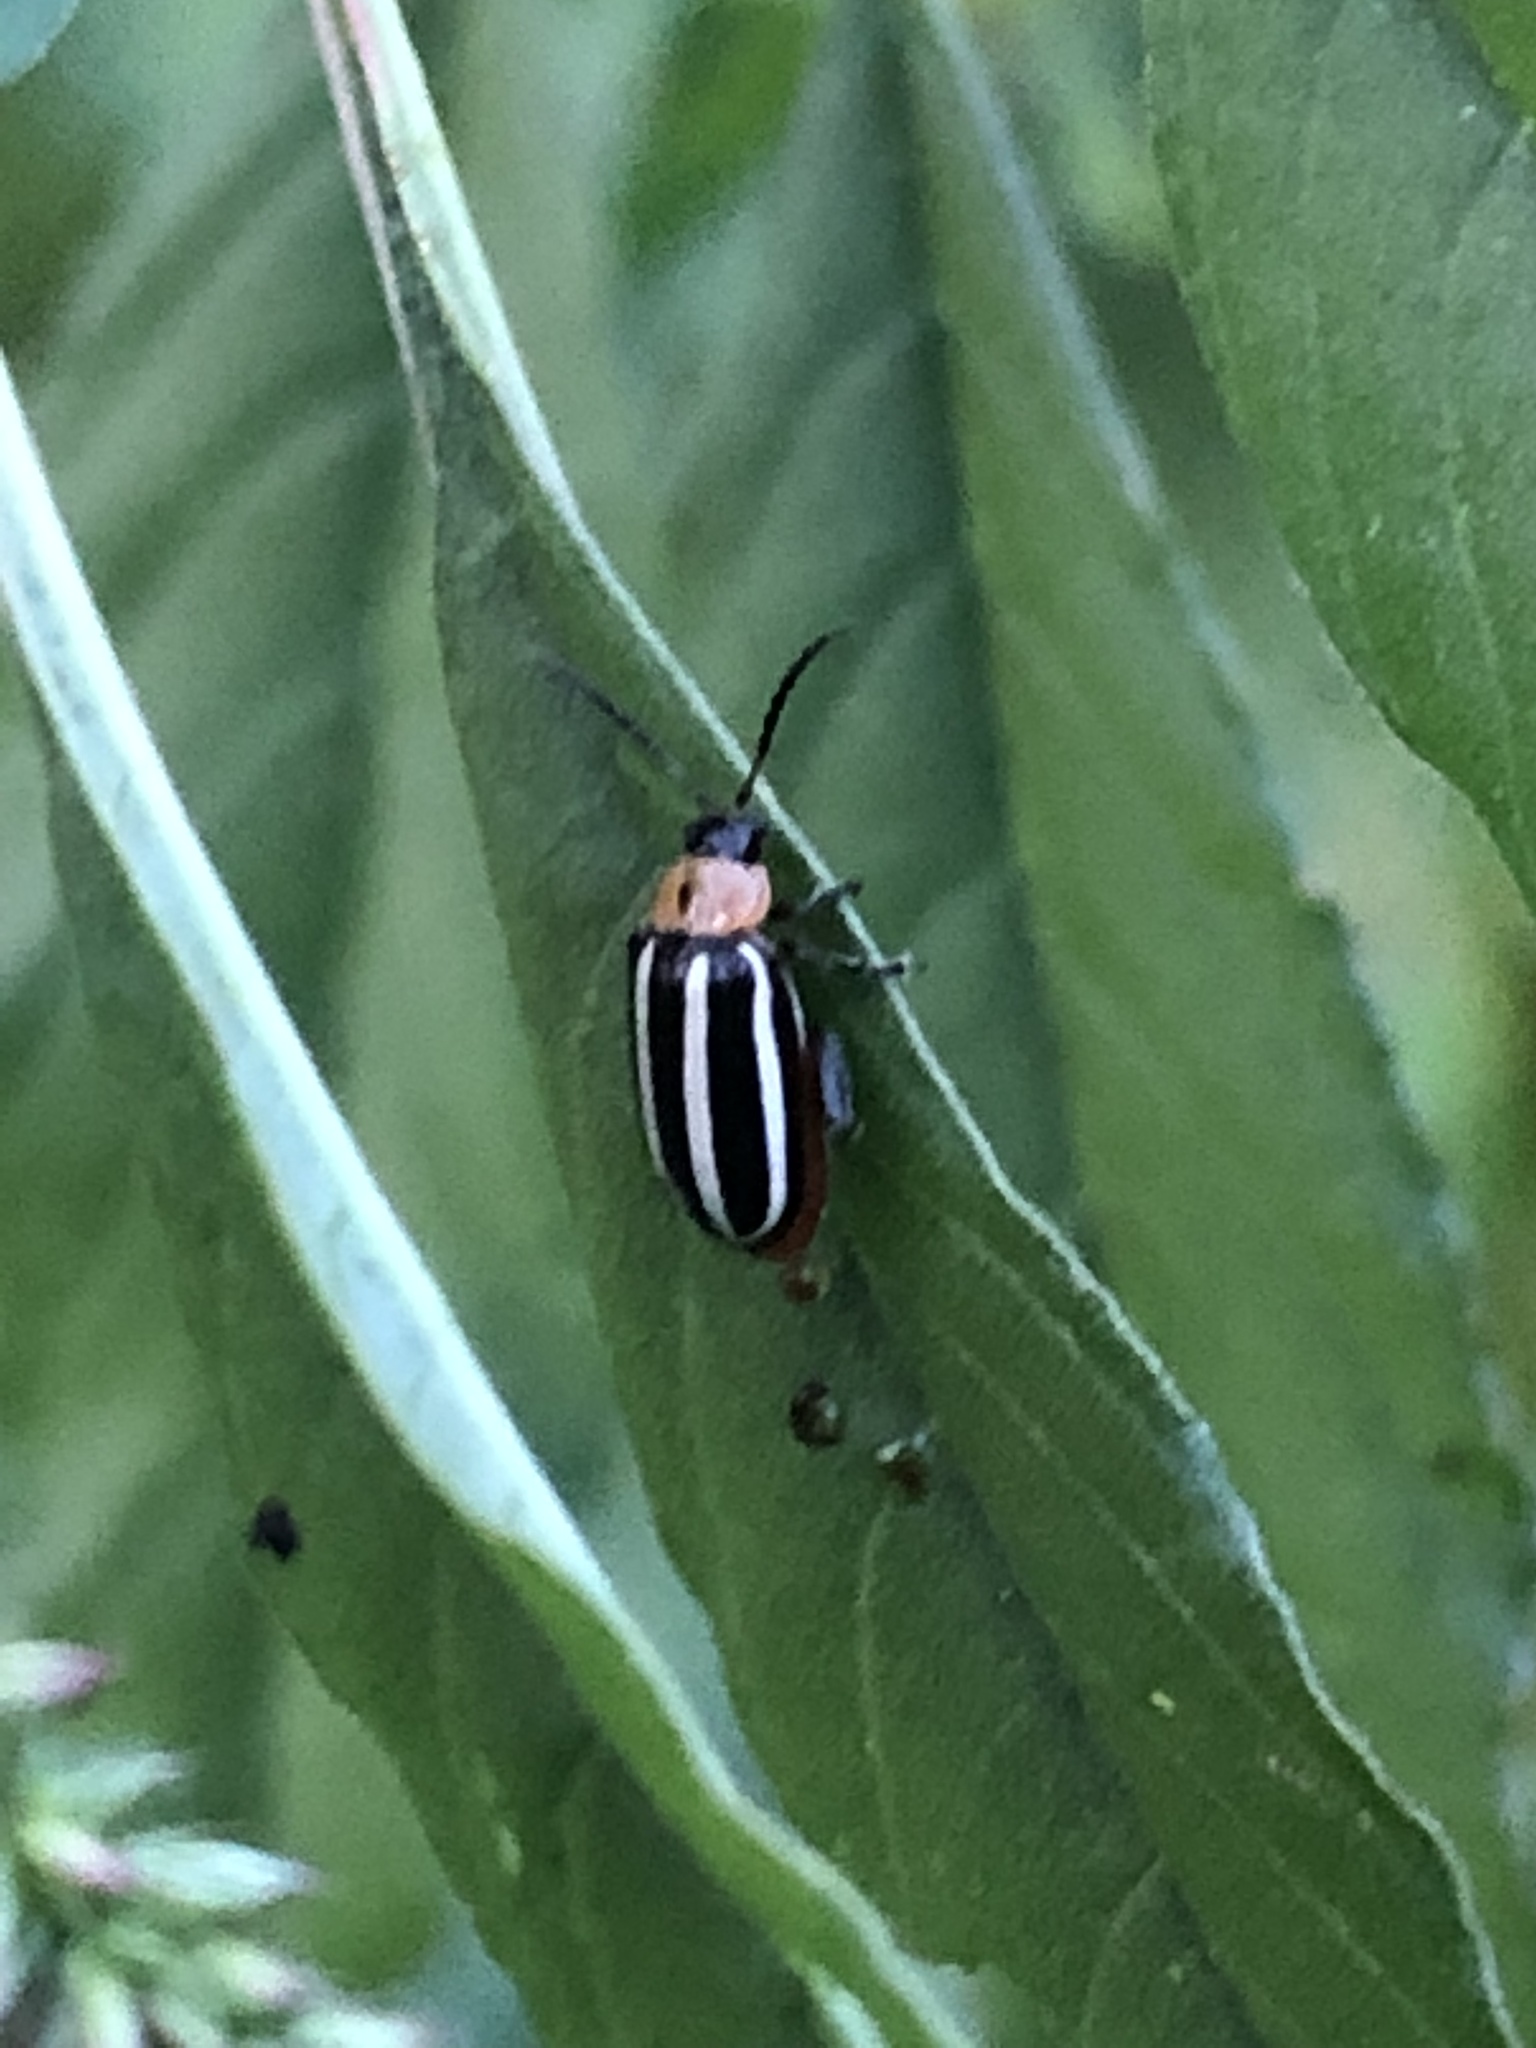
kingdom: Animalia
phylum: Arthropoda
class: Insecta
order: Coleoptera
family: Chrysomelidae
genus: Disonycha
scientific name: Disonycha glabrata
